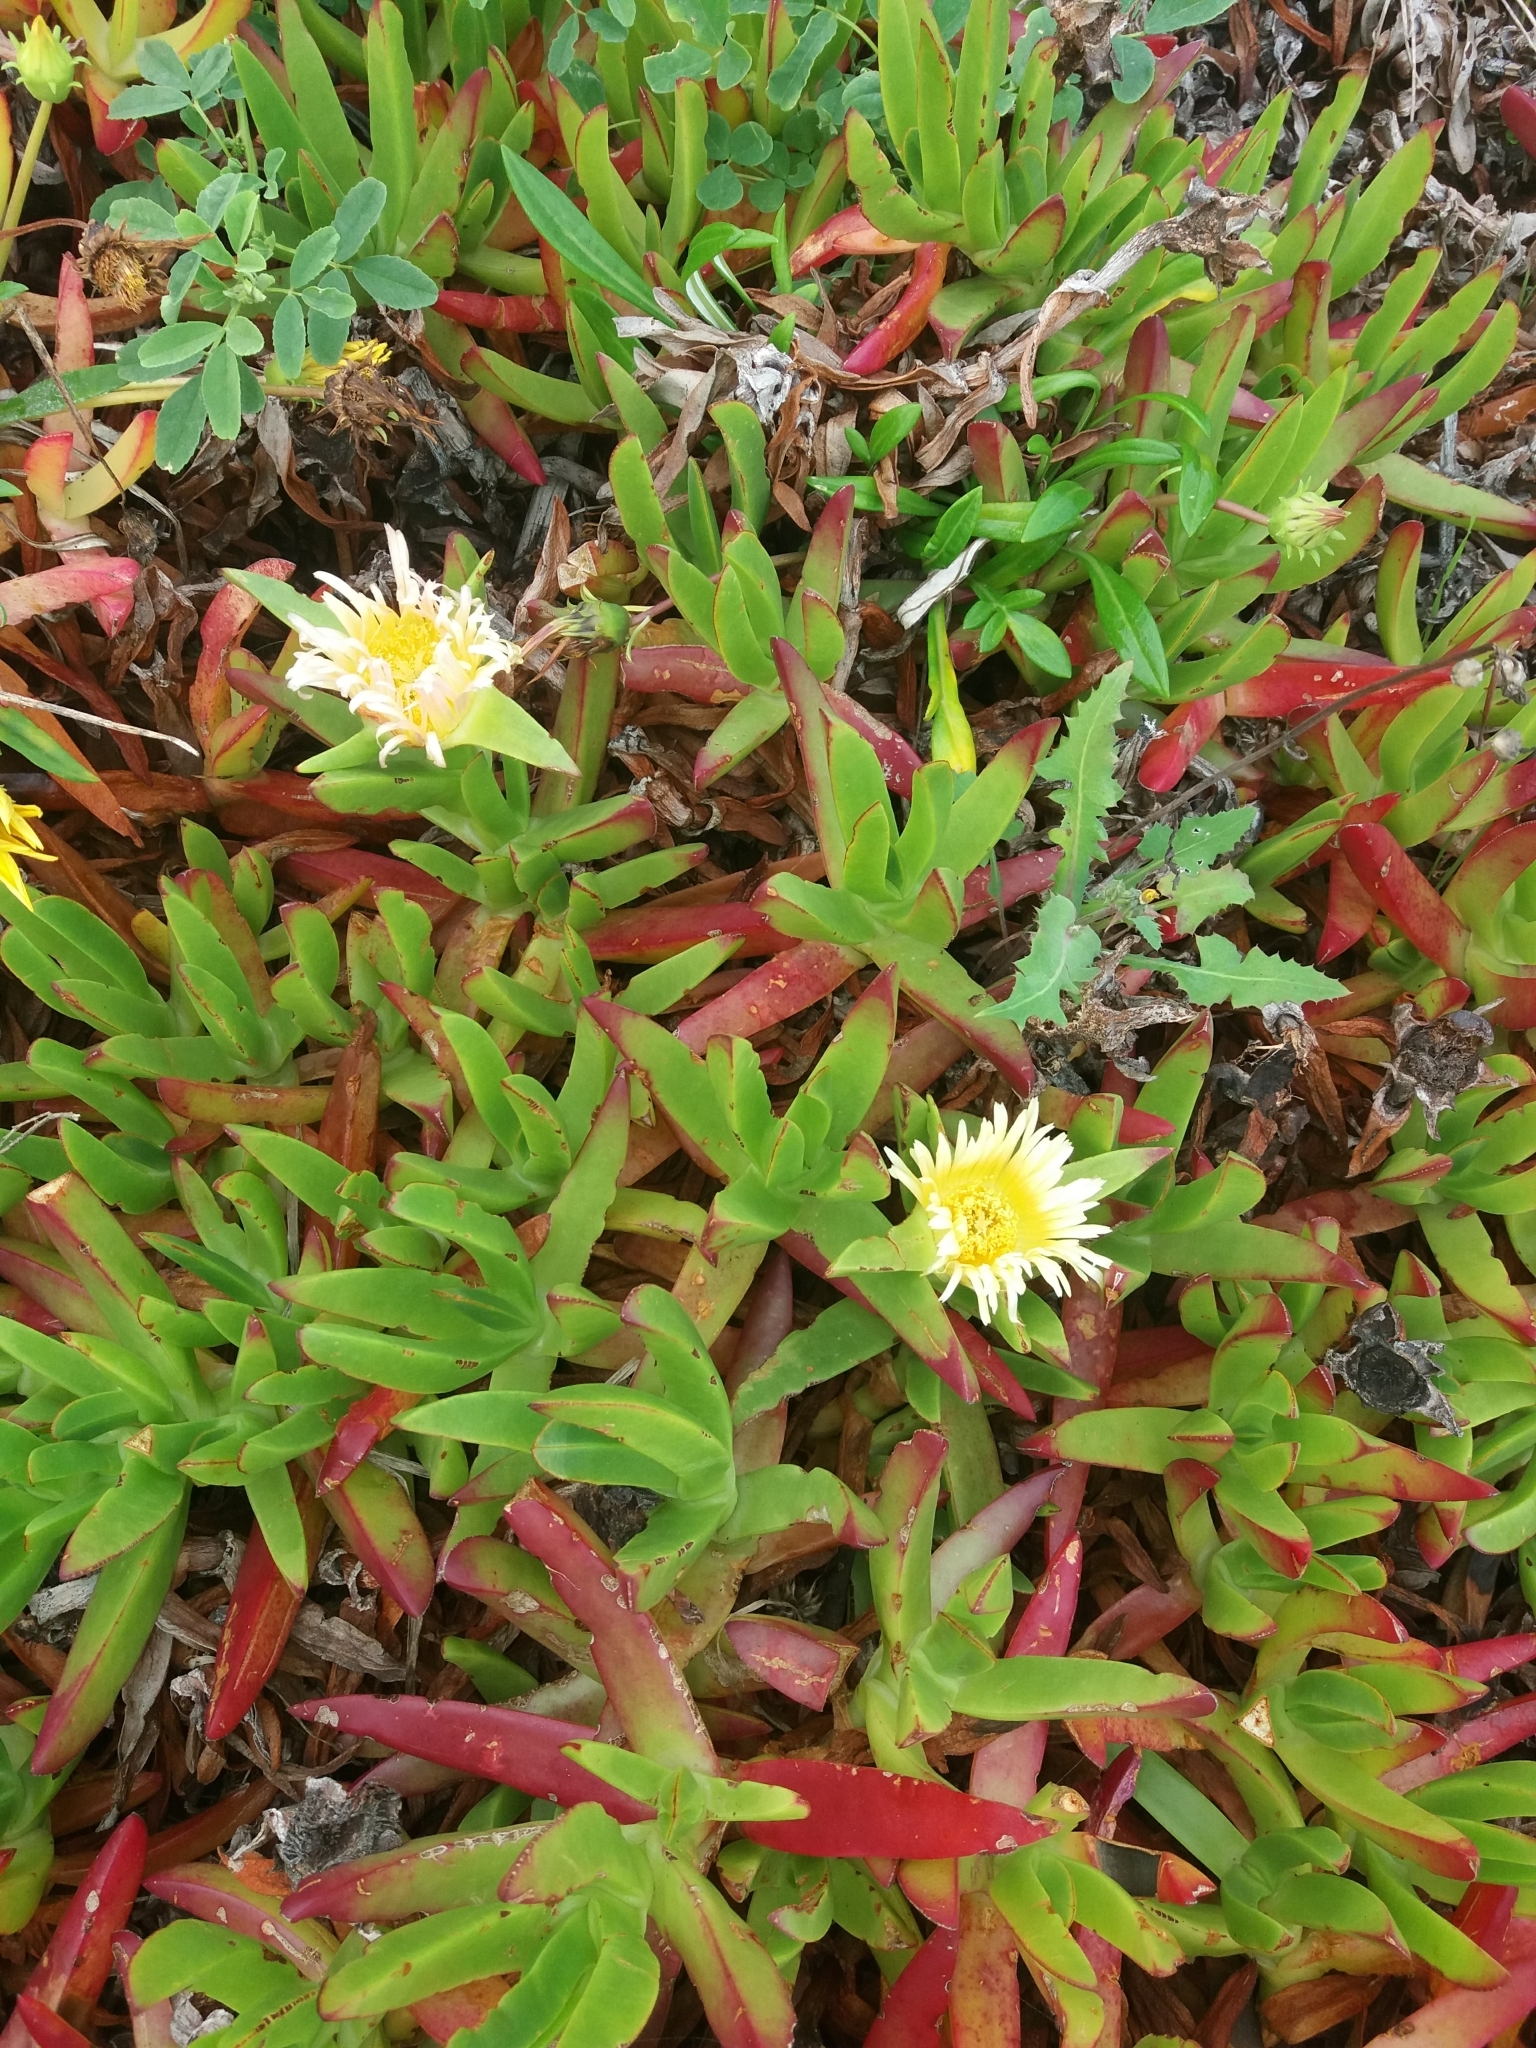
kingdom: Plantae
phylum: Tracheophyta
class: Magnoliopsida
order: Caryophyllales
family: Aizoaceae
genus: Carpobrotus
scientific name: Carpobrotus edulis
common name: Hottentot-fig
